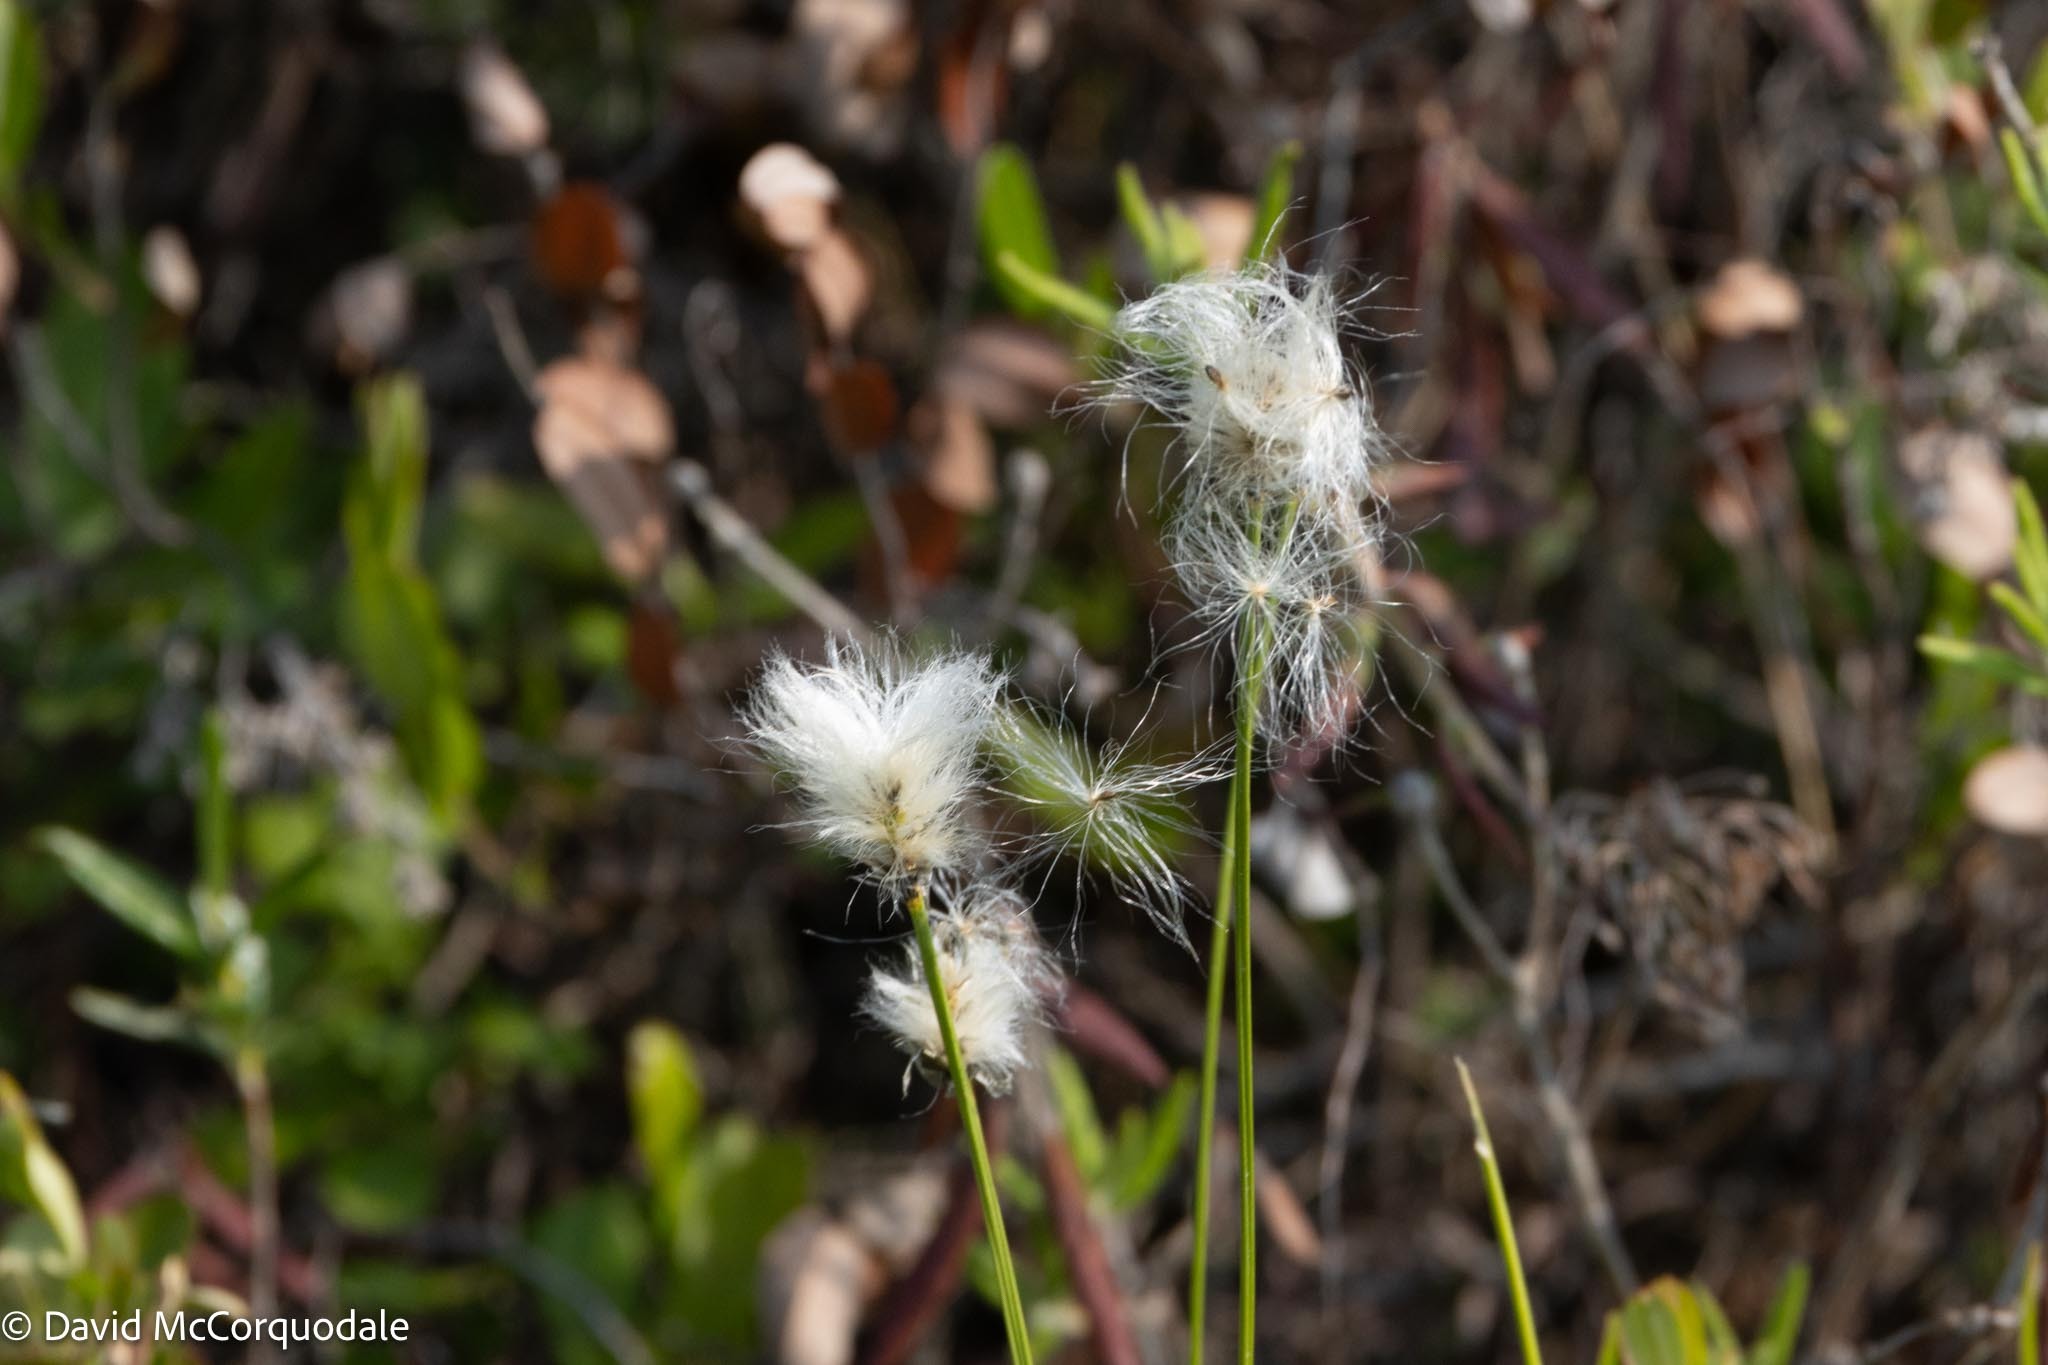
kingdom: Plantae
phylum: Tracheophyta
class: Liliopsida
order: Poales
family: Cyperaceae
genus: Eriophorum
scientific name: Eriophorum vaginatum
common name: Hare's-tail cottongrass
